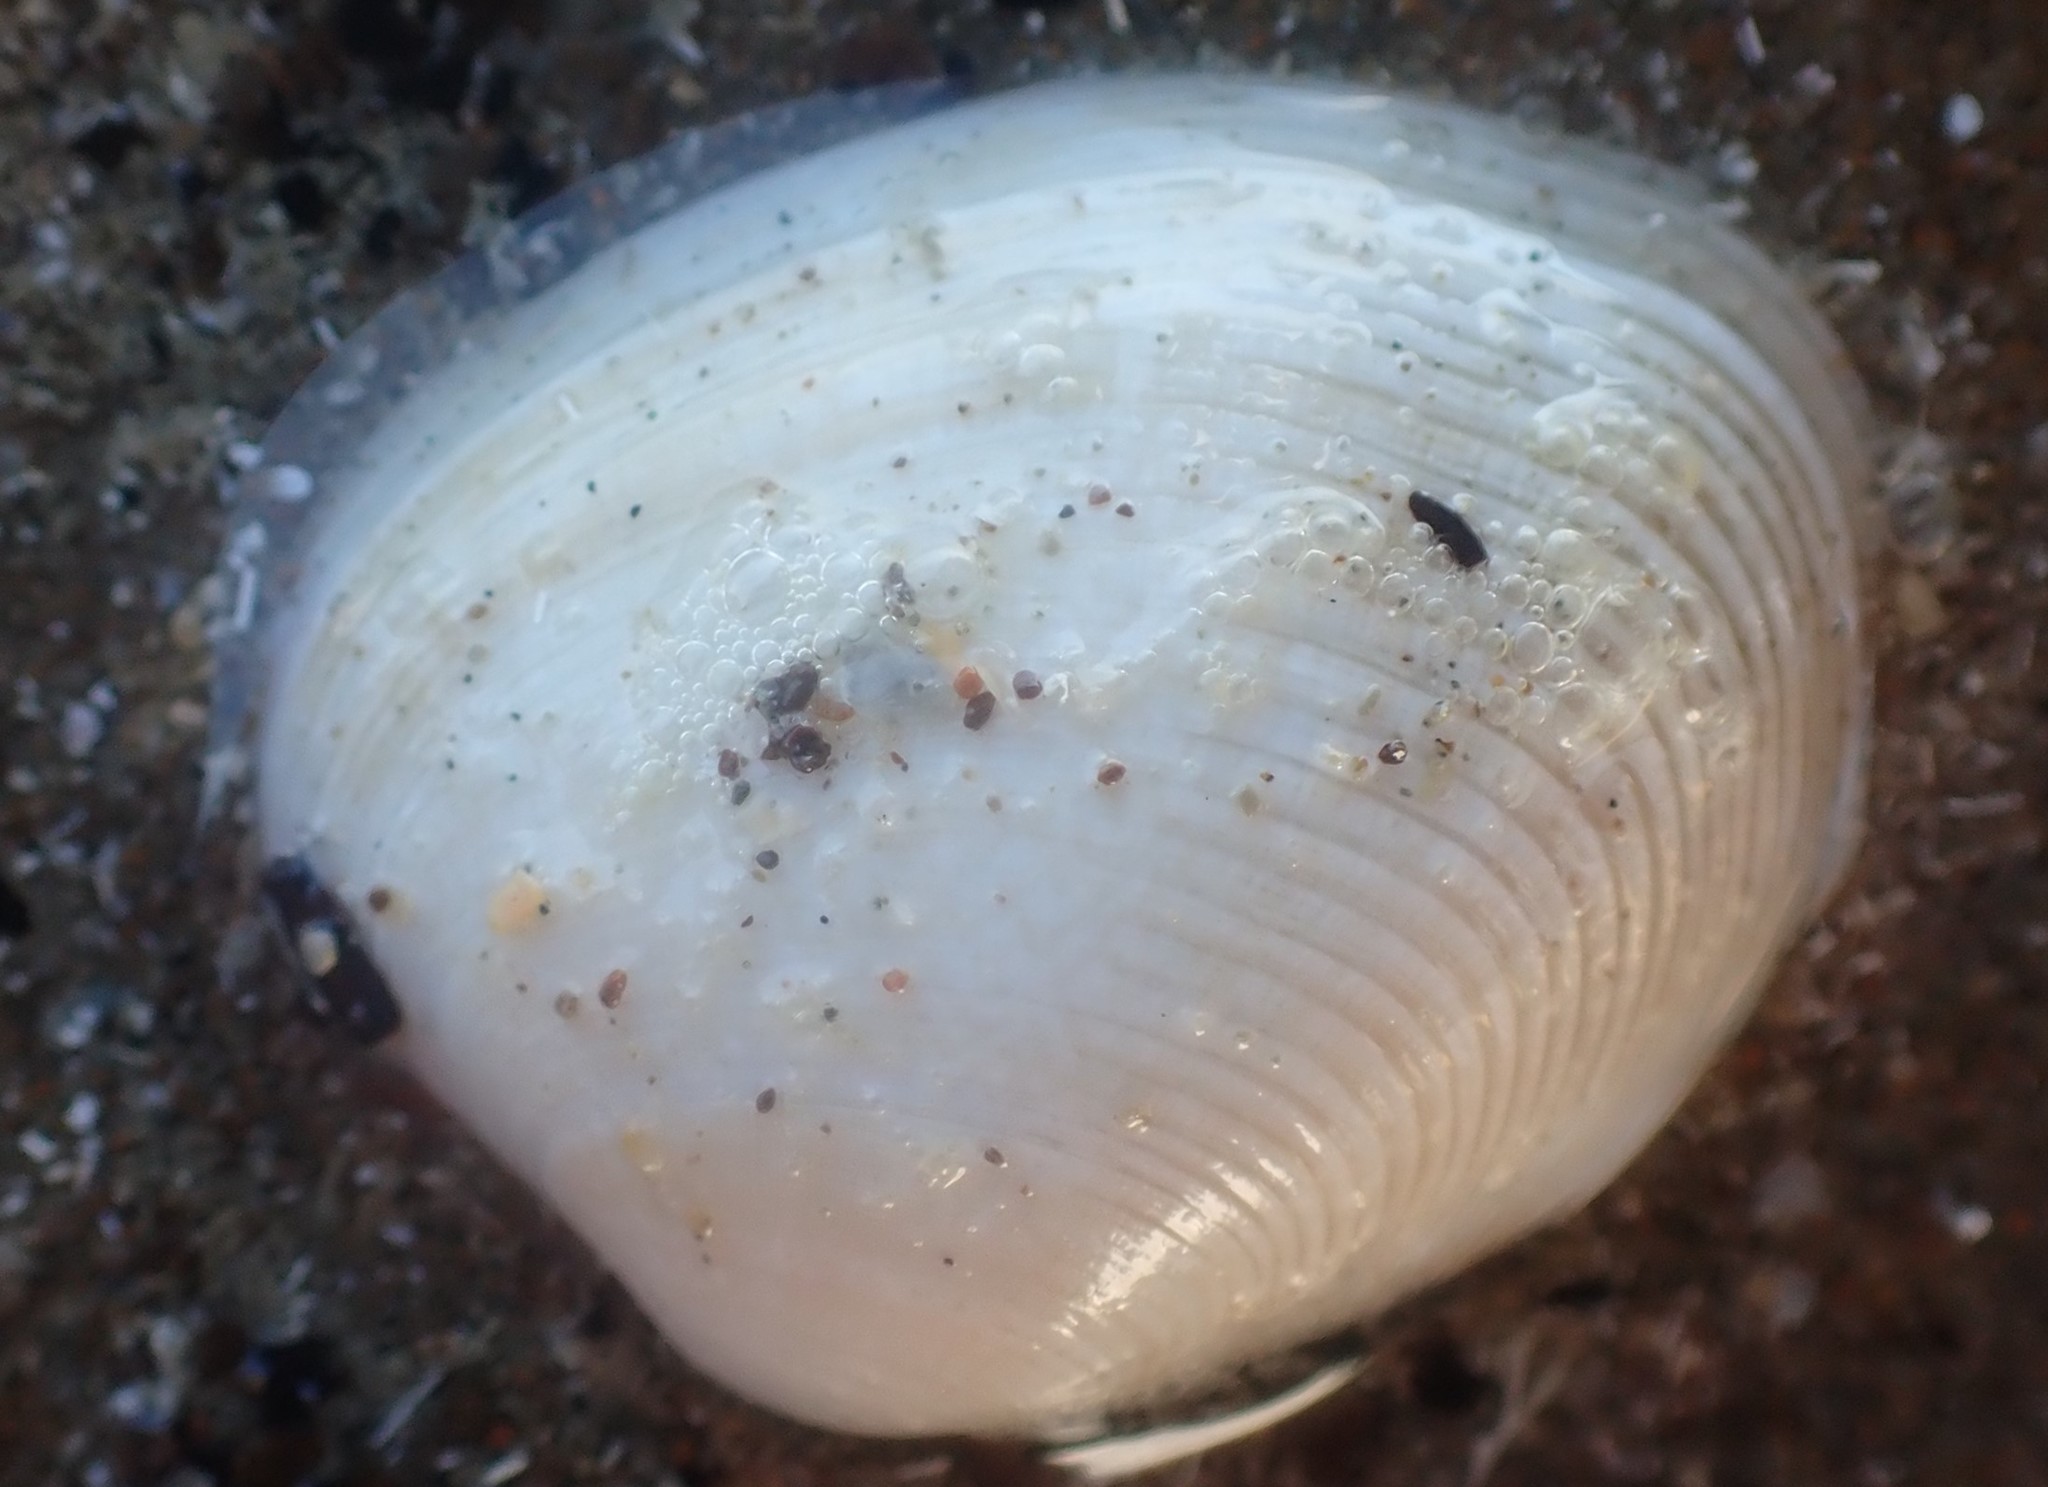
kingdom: Animalia
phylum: Mollusca
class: Bivalvia
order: Venerida
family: Veneridae
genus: Venerupis
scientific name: Venerupis largillierti
